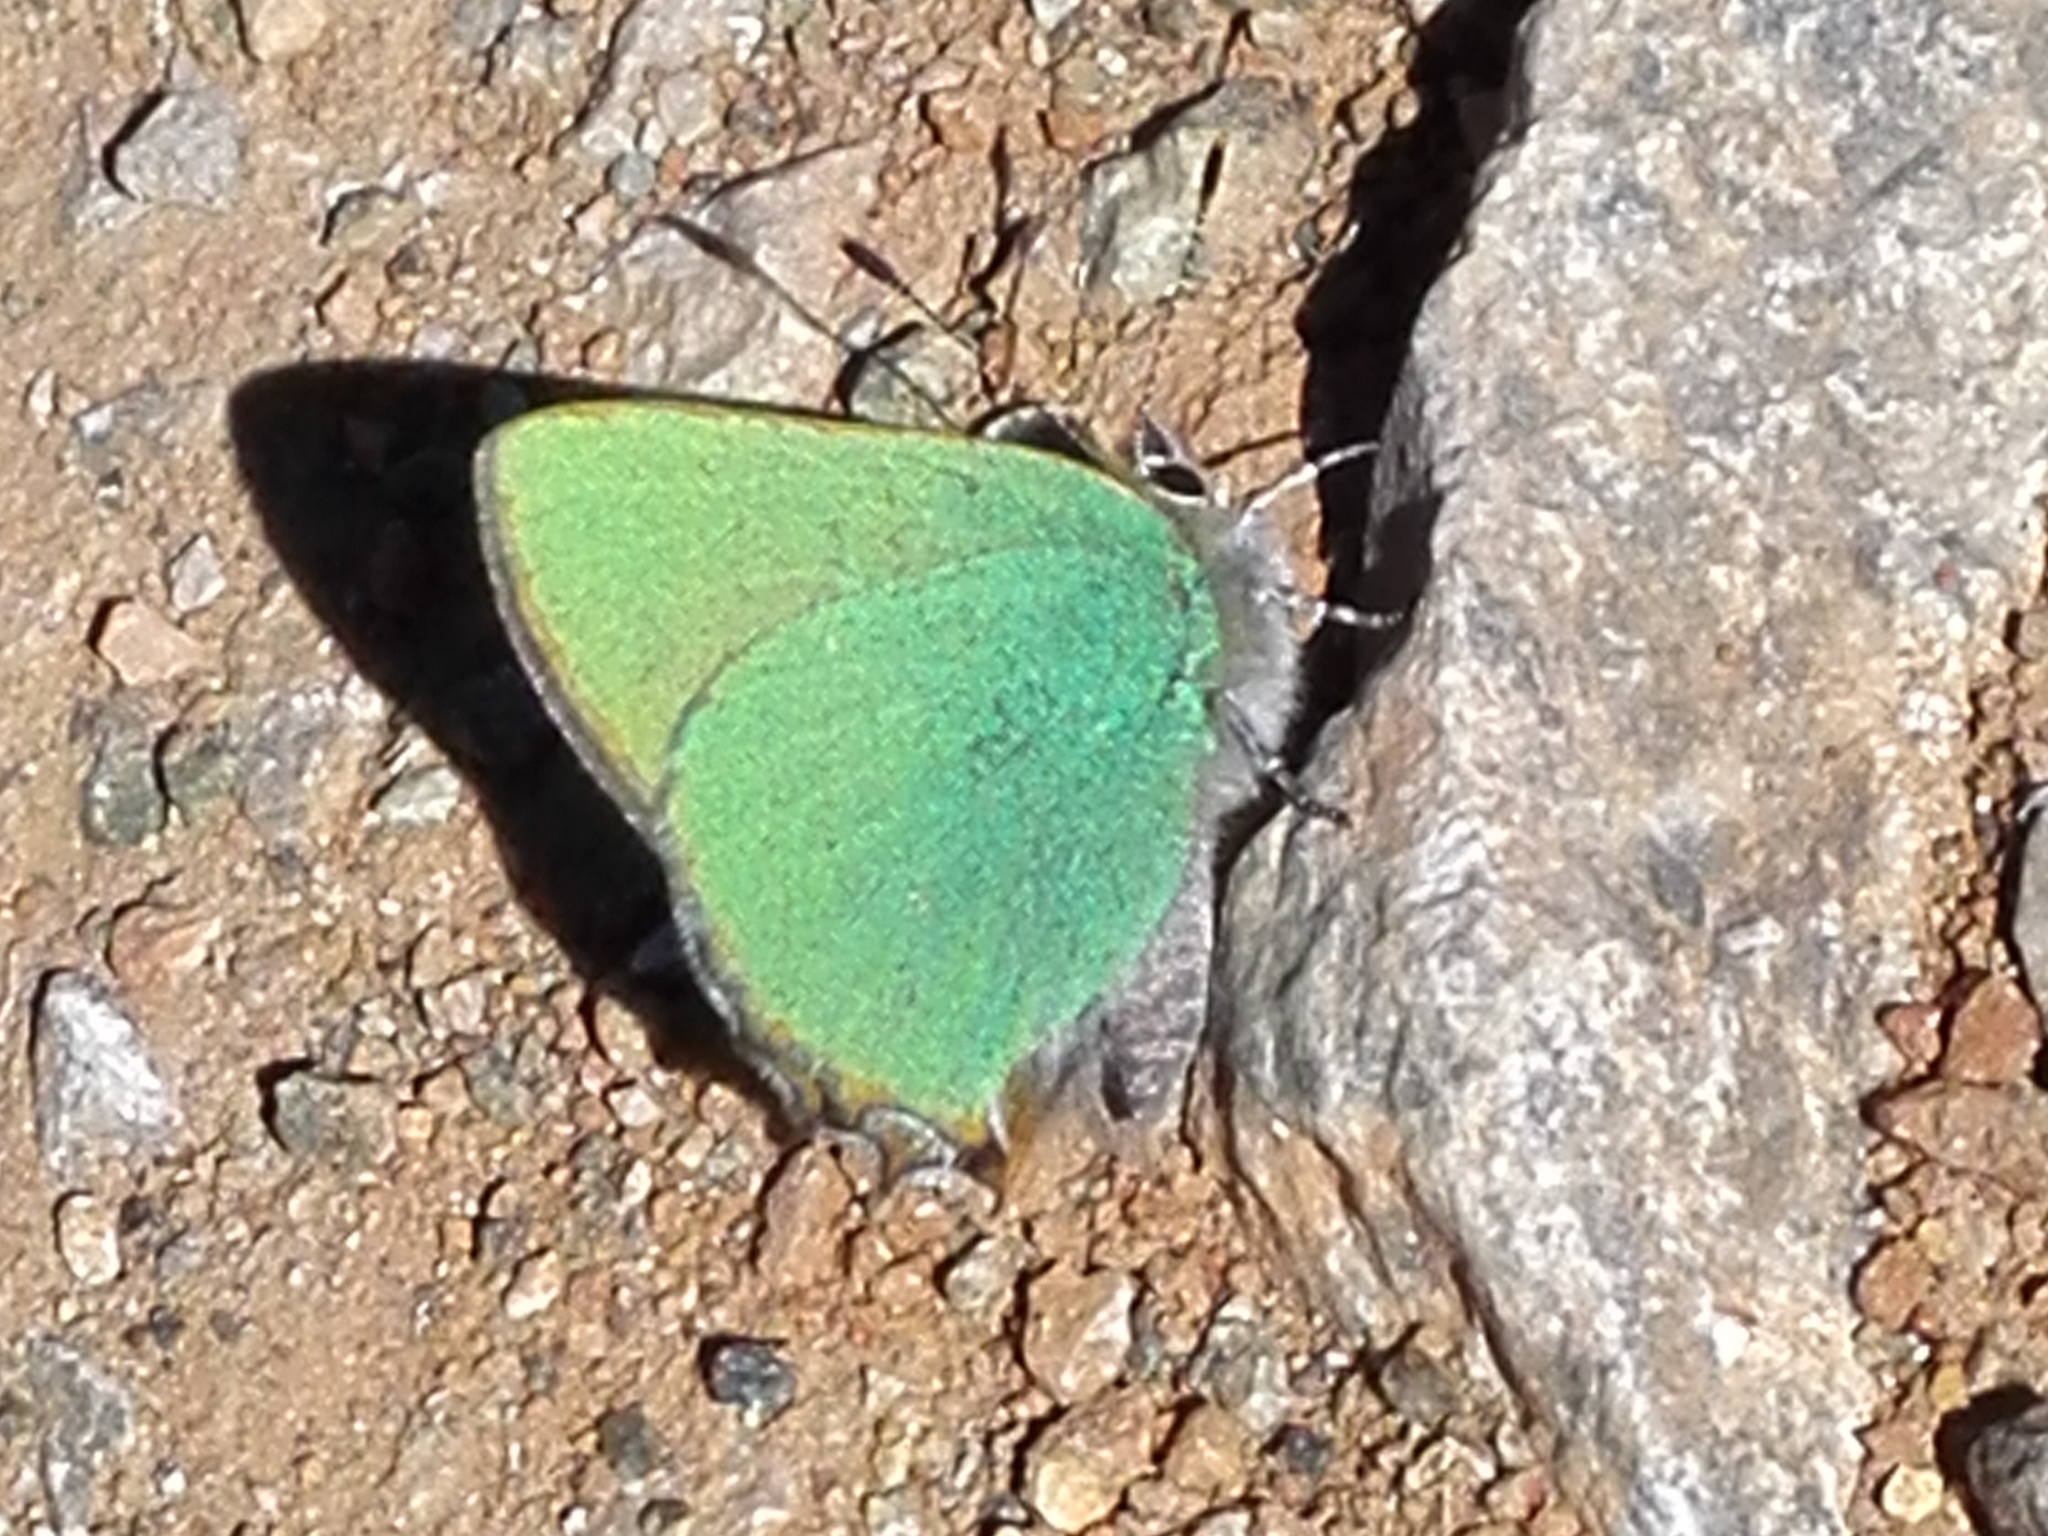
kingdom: Animalia
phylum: Arthropoda
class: Insecta
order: Lepidoptera
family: Lycaenidae
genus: Callophrys
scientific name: Callophrys rubi
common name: Green hairstreak
